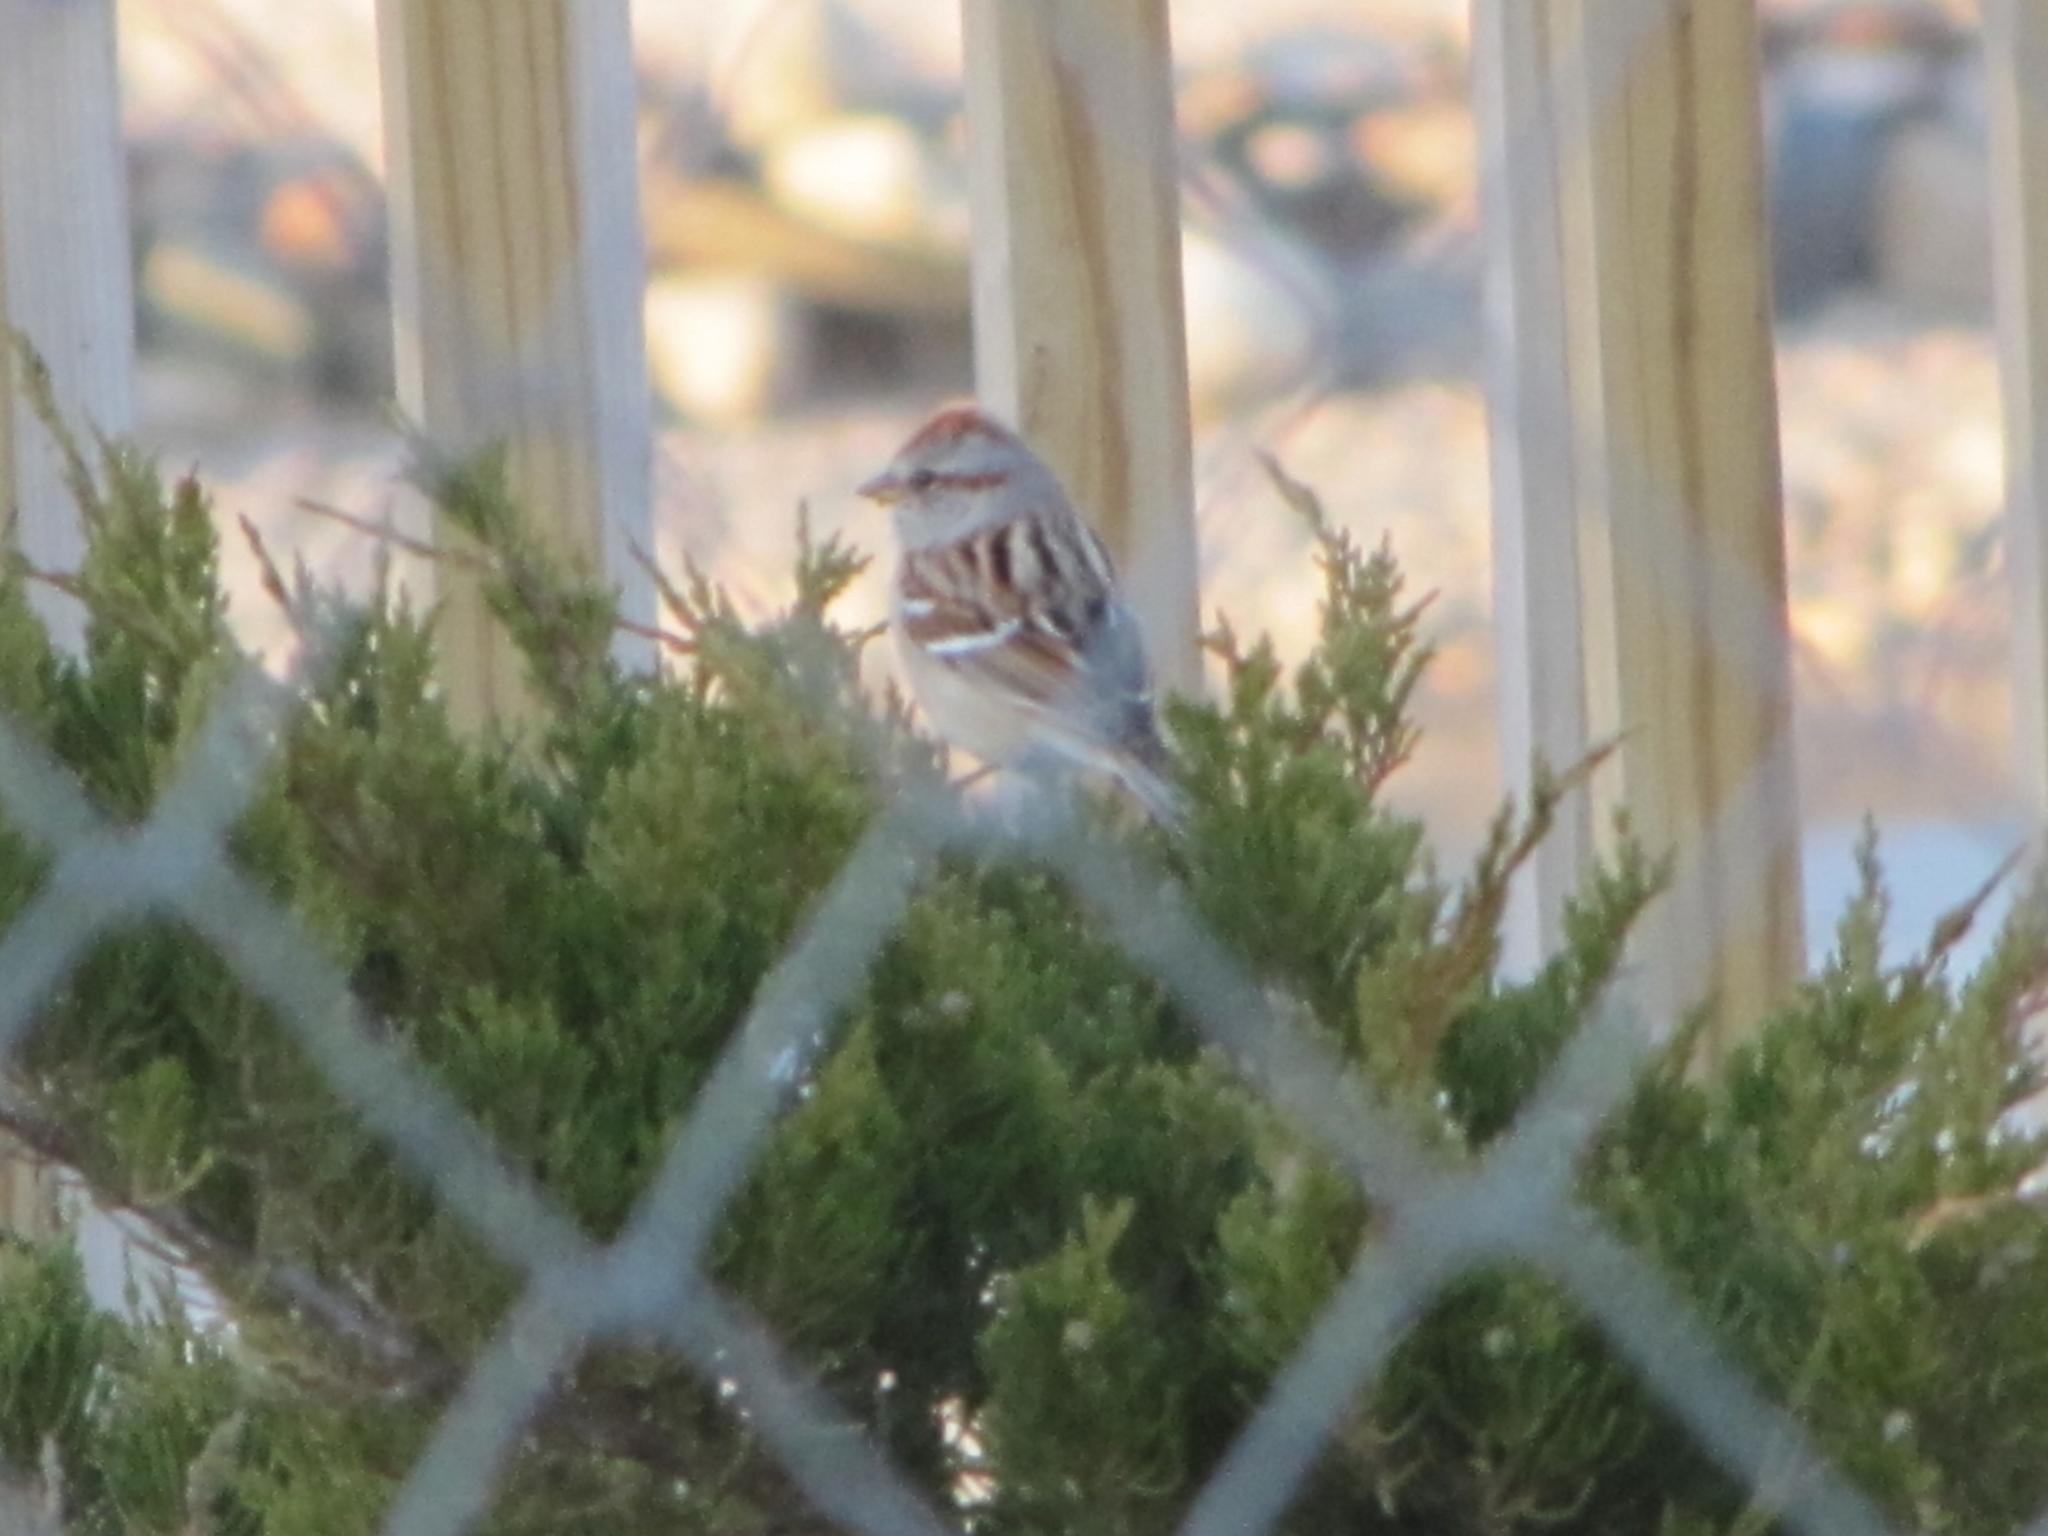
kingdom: Animalia
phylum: Chordata
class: Aves
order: Passeriformes
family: Passerellidae
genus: Spizelloides
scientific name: Spizelloides arborea
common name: American tree sparrow
